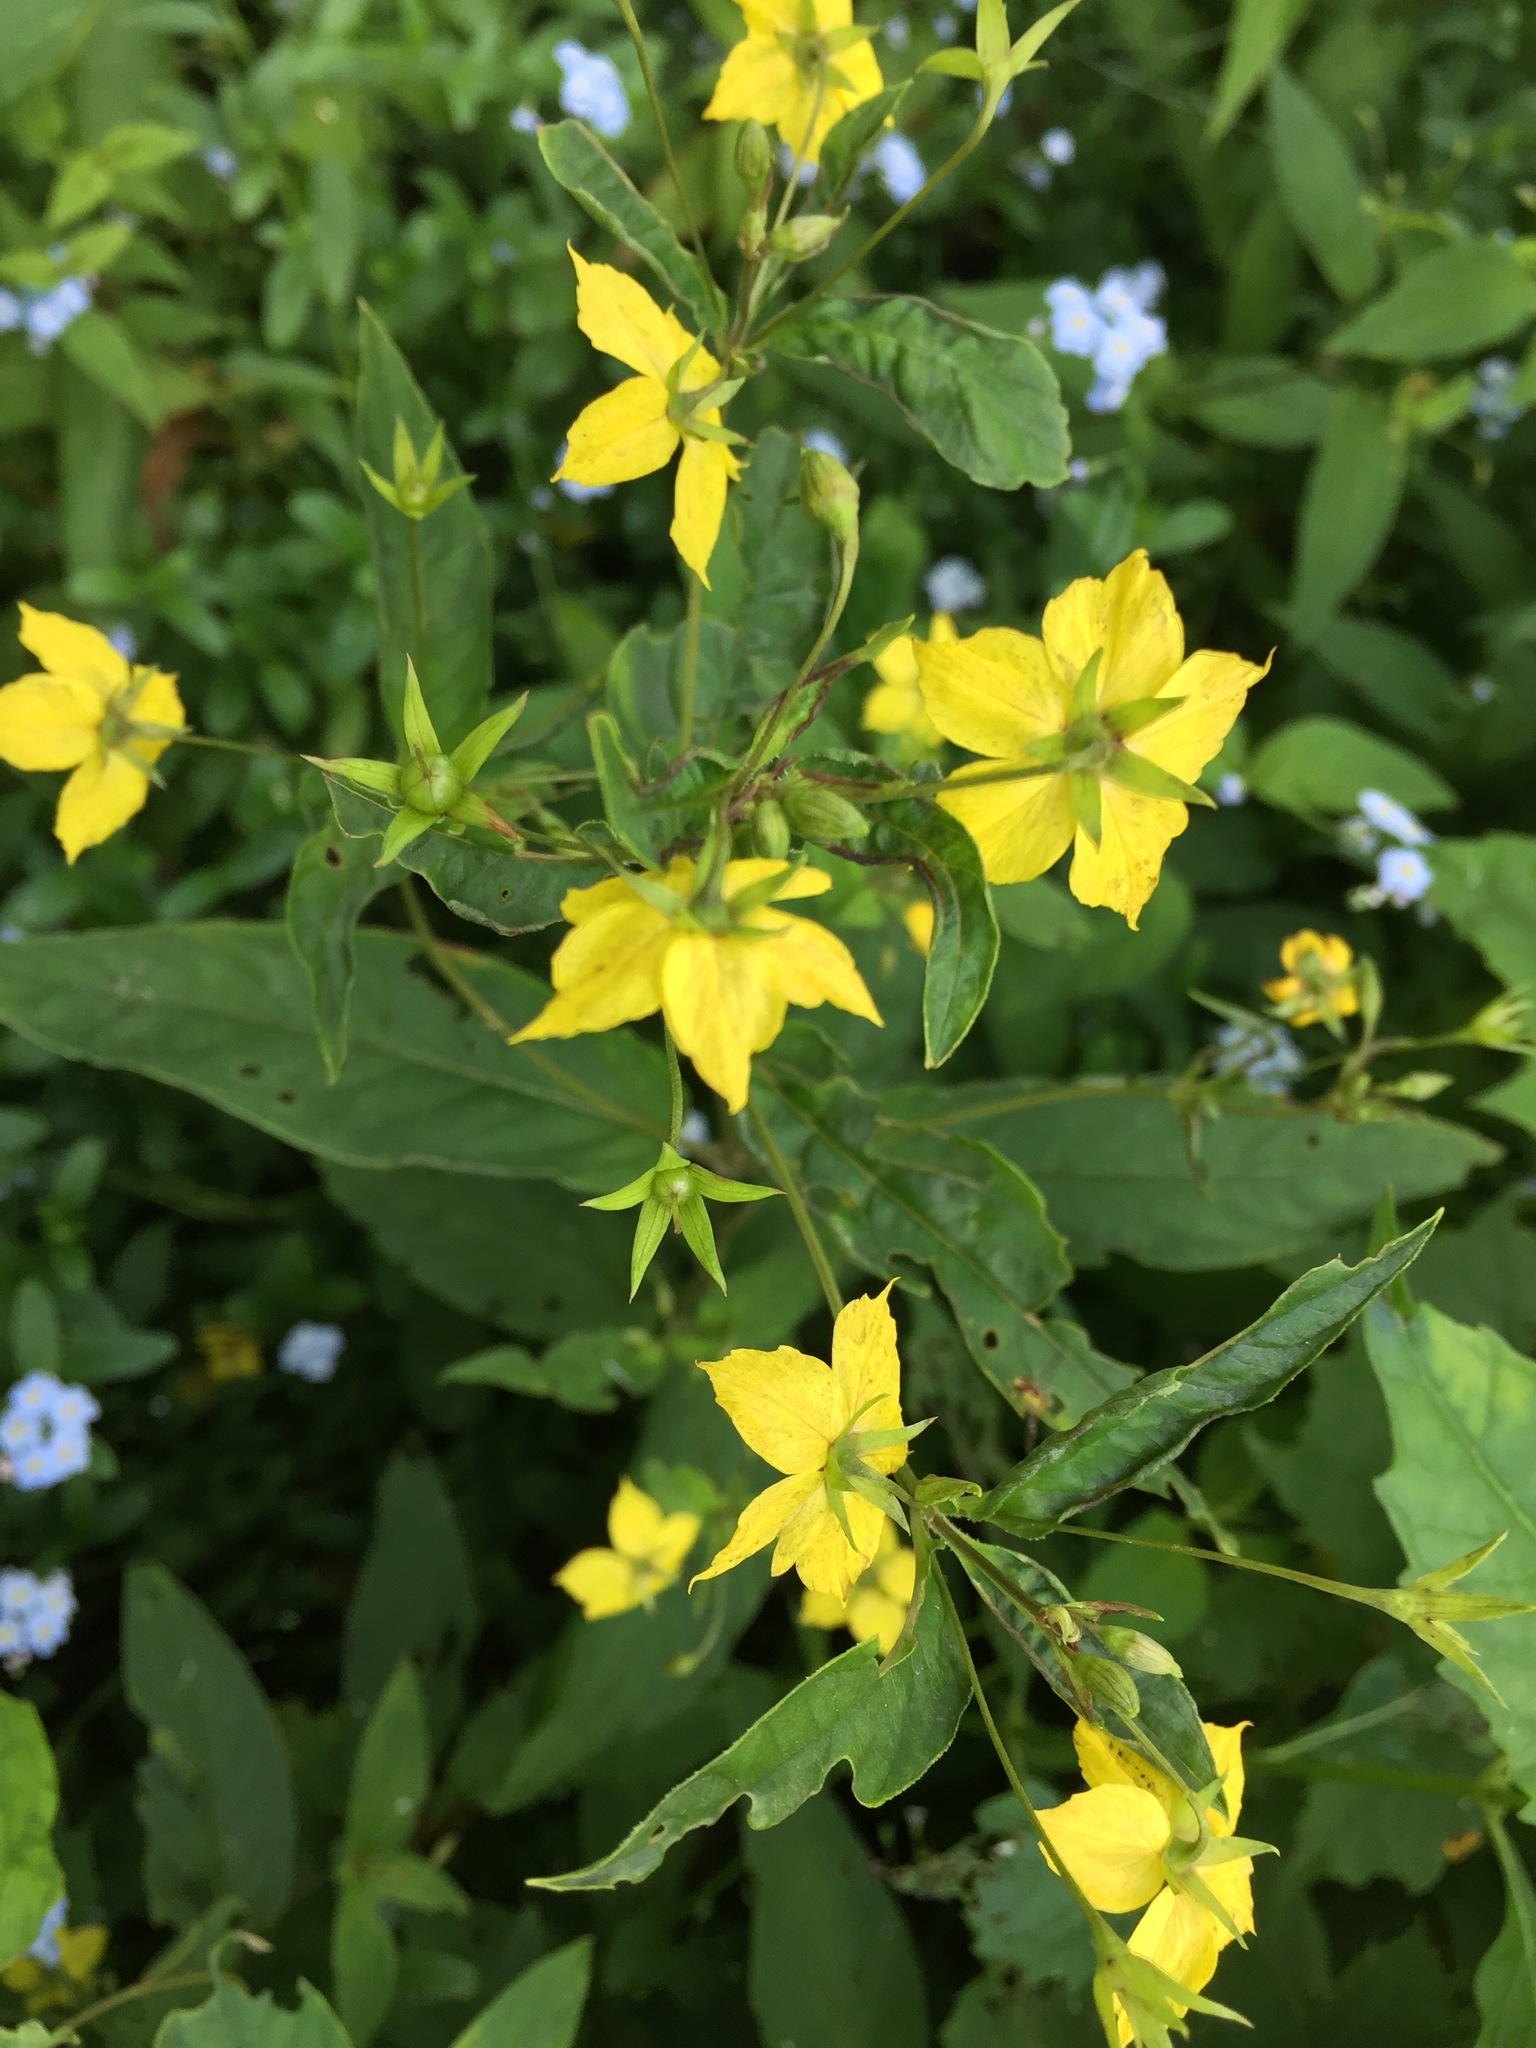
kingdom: Plantae
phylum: Tracheophyta
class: Magnoliopsida
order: Ericales
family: Primulaceae
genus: Lysimachia
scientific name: Lysimachia ciliata
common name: Fringed loosestrife
